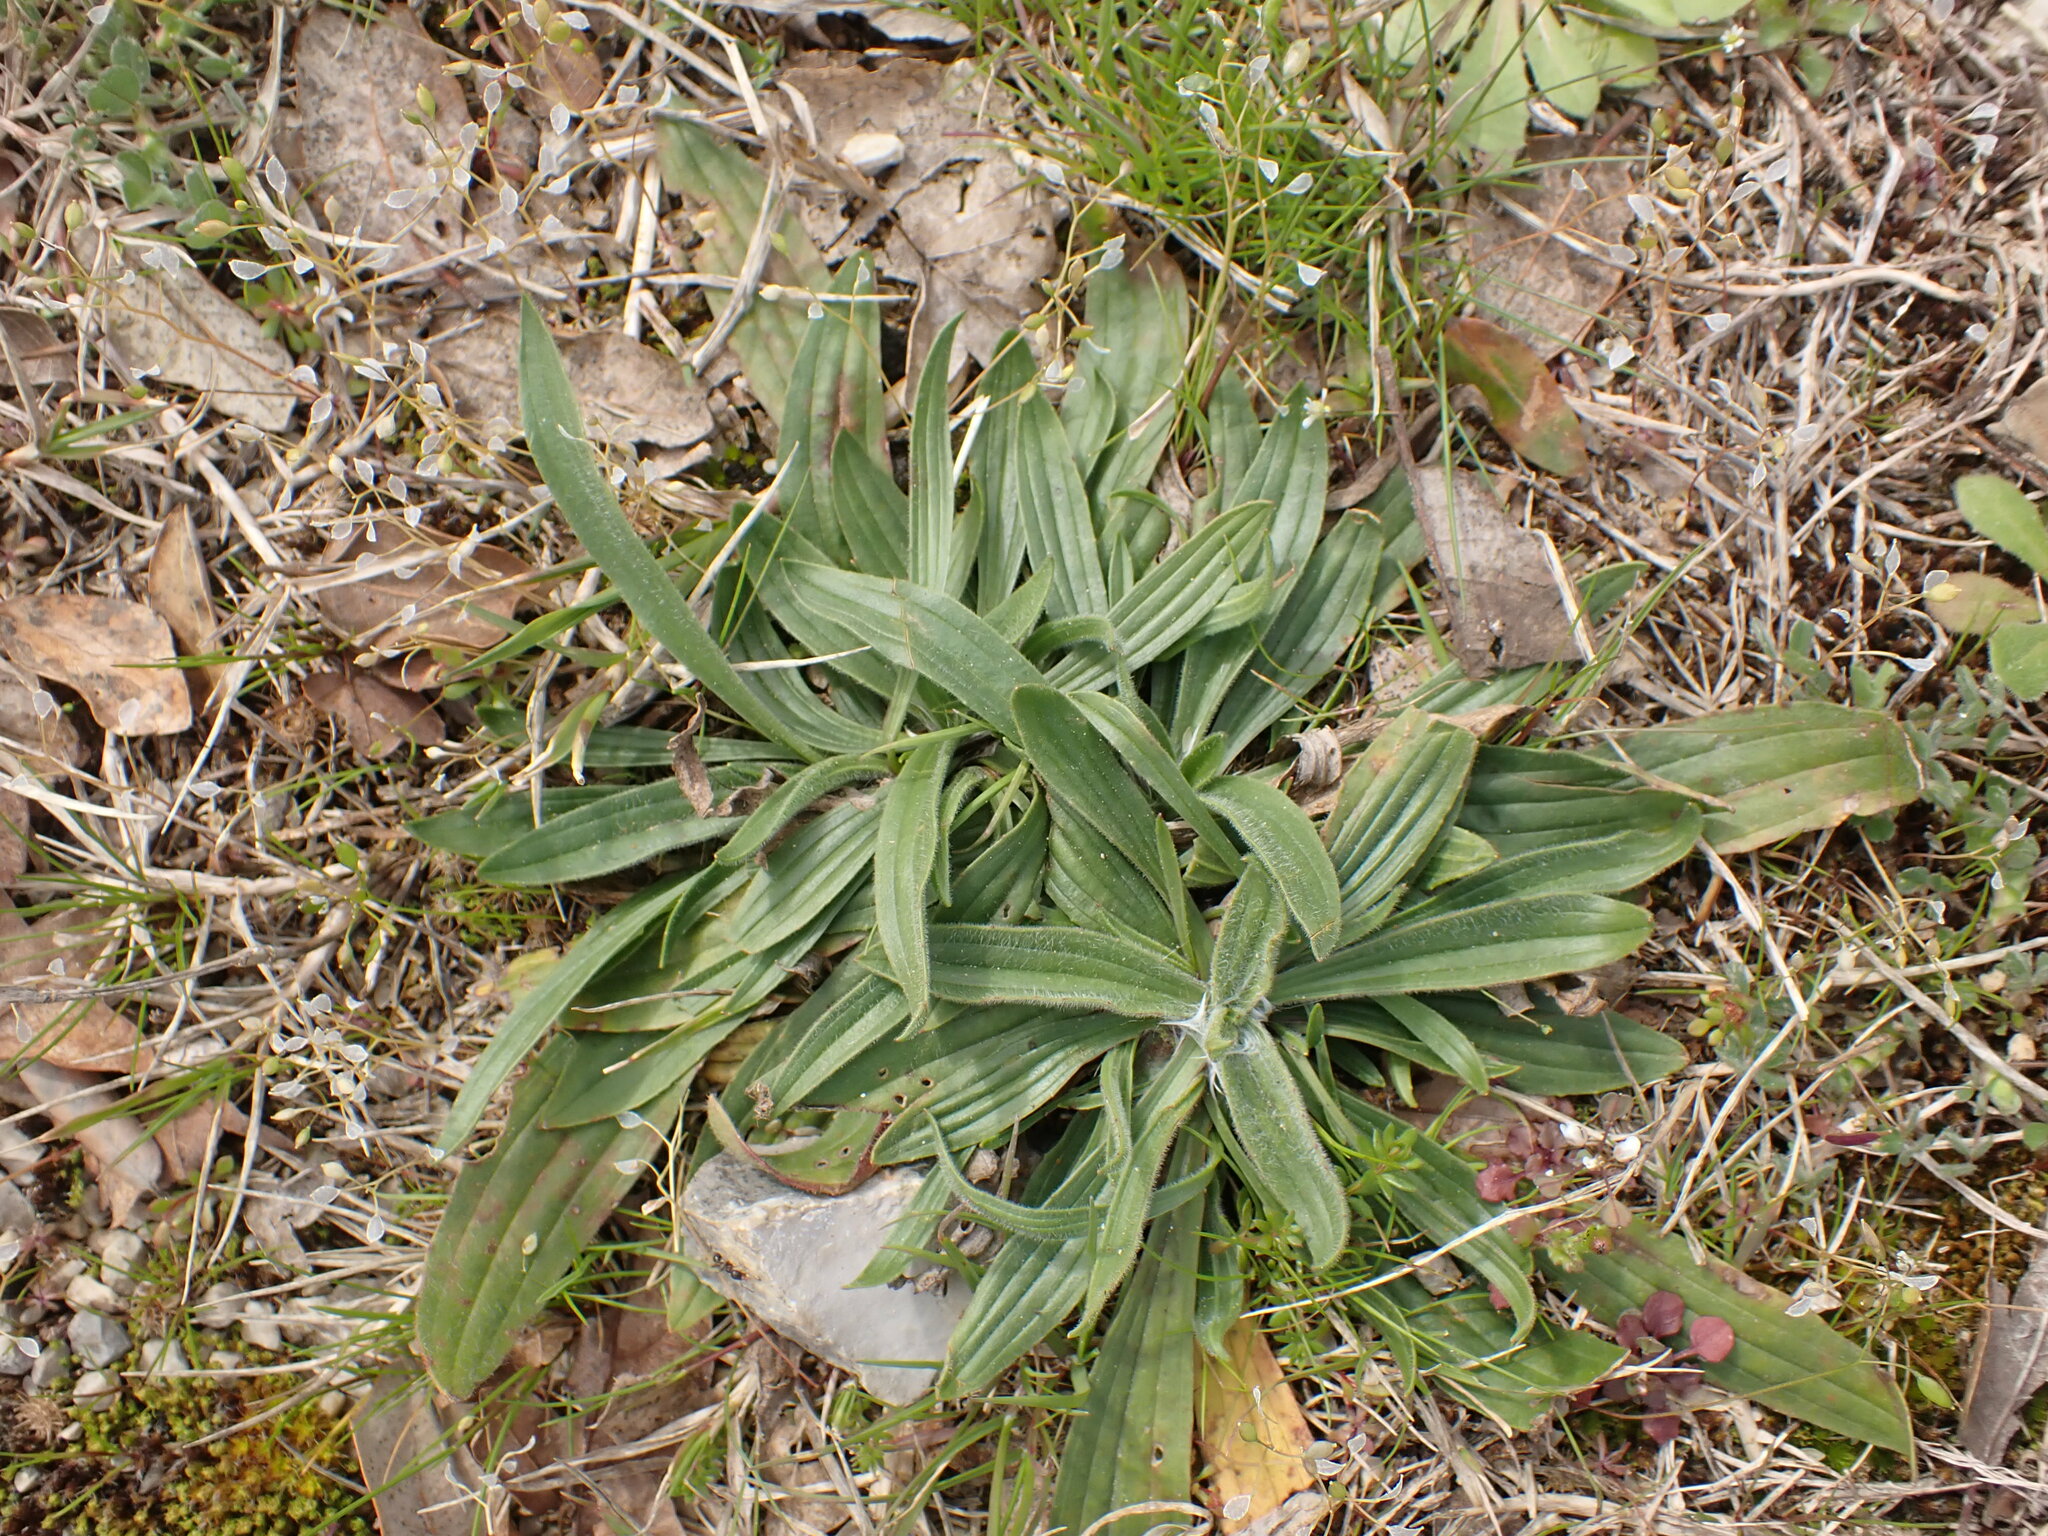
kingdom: Plantae
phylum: Tracheophyta
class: Magnoliopsida
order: Lamiales
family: Plantaginaceae
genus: Plantago
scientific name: Plantago lanceolata
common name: Ribwort plantain
